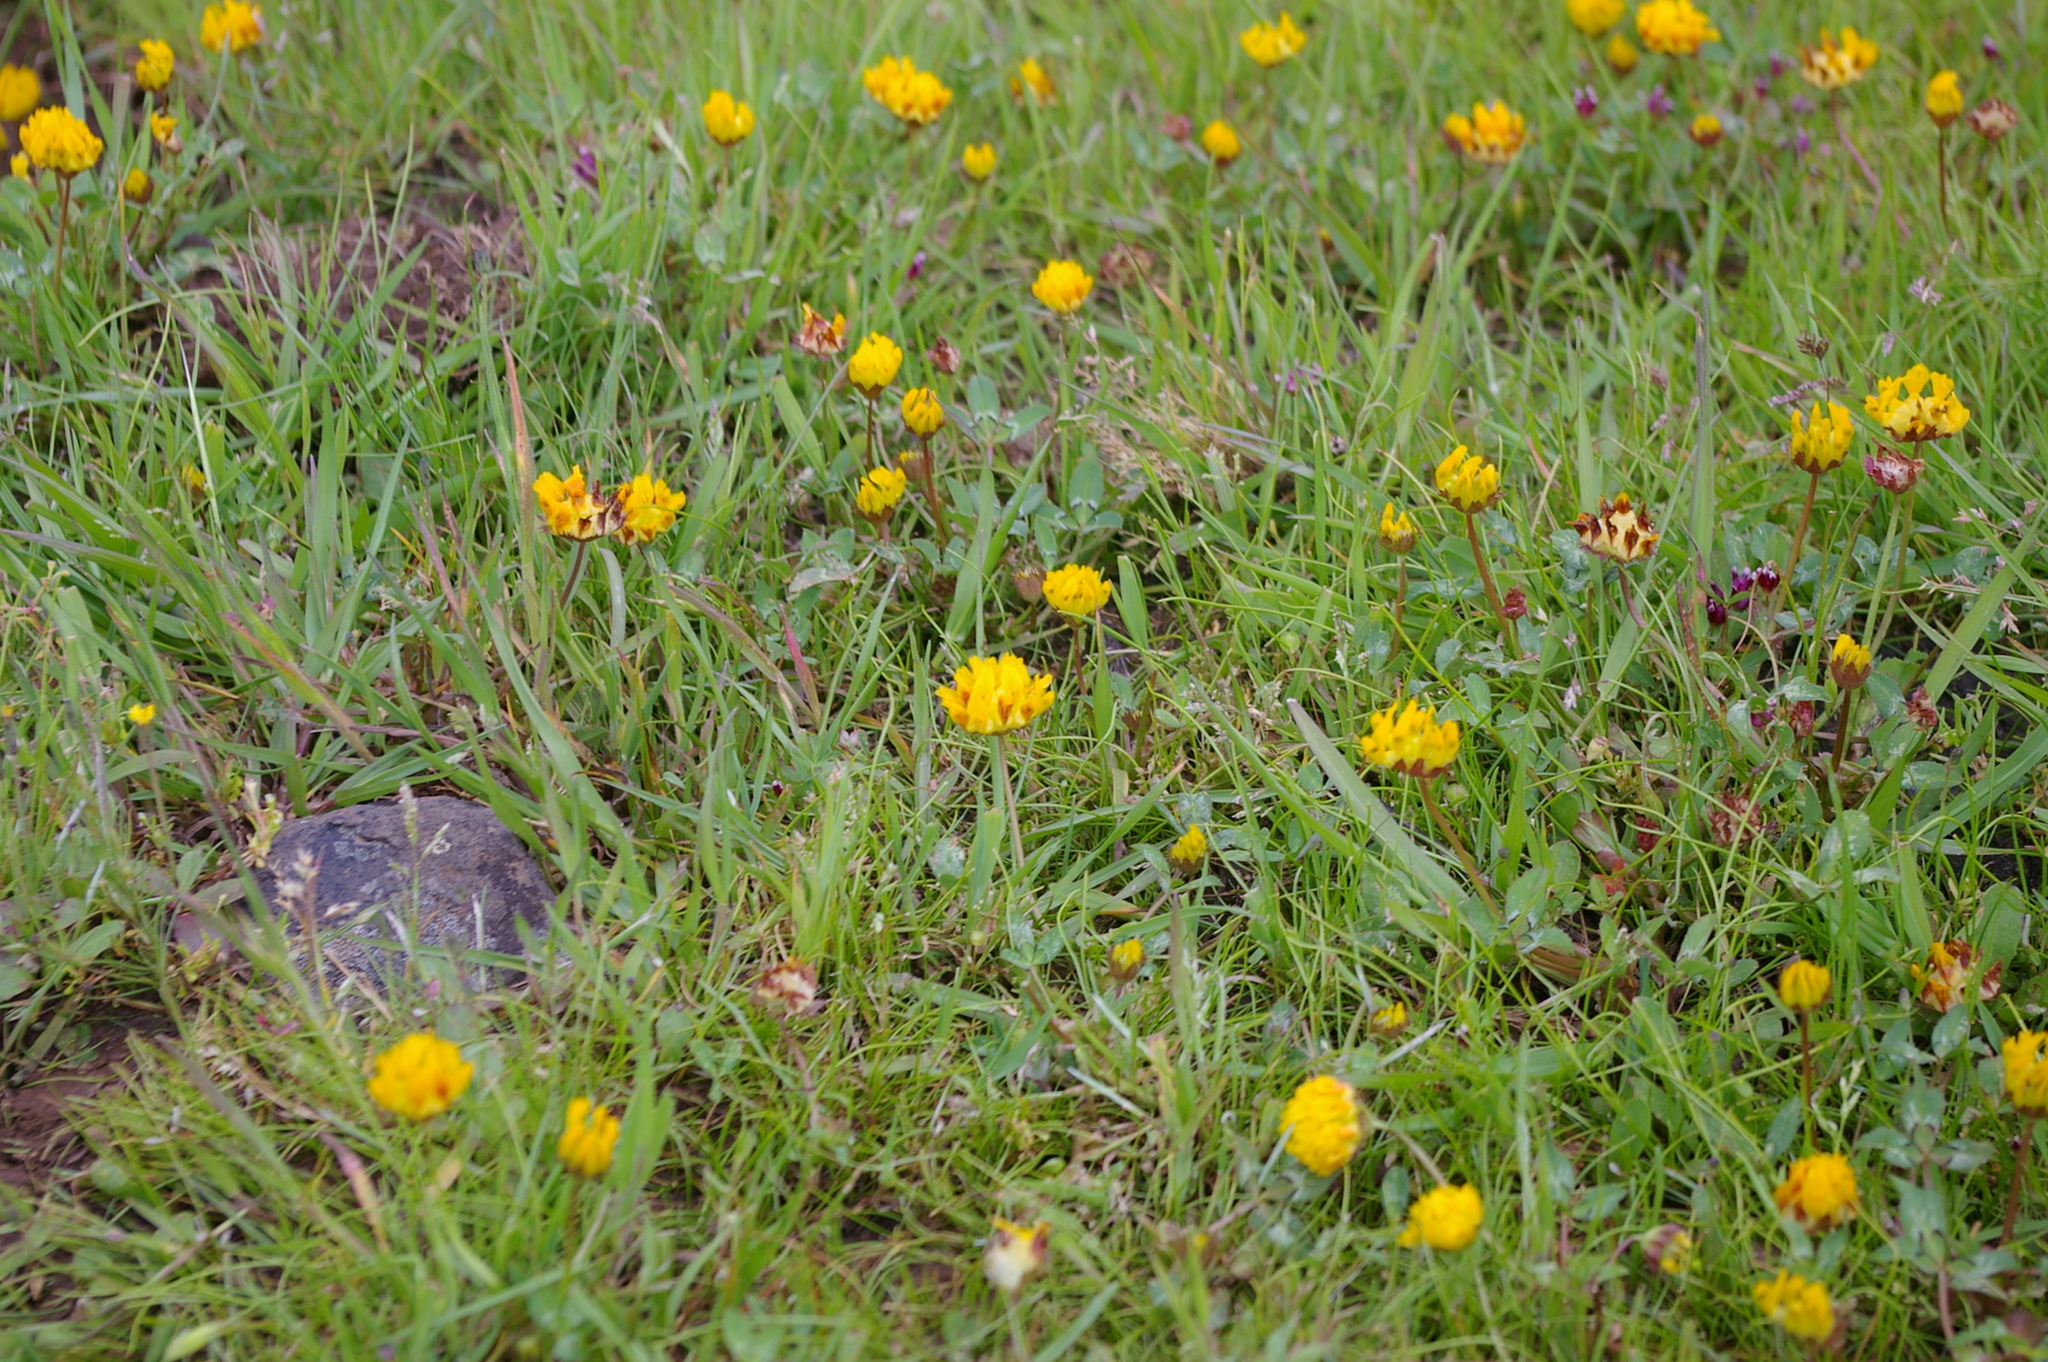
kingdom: Plantae
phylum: Tracheophyta
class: Magnoliopsida
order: Fabales
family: Fabaceae
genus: Trifolium
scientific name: Trifolium jokerstii
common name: Butte county golden clover
